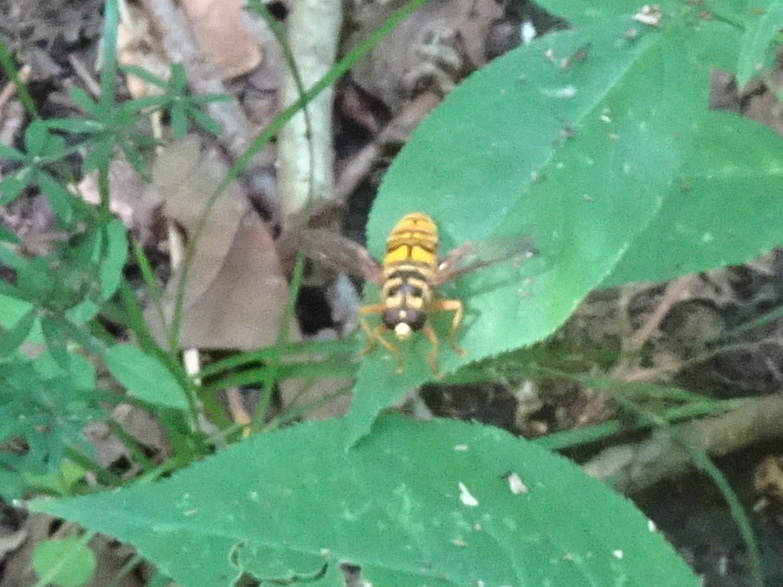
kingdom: Animalia
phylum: Arthropoda
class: Insecta
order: Diptera
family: Syrphidae
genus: Milesia
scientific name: Milesia virginiensis
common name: Virginia giant
